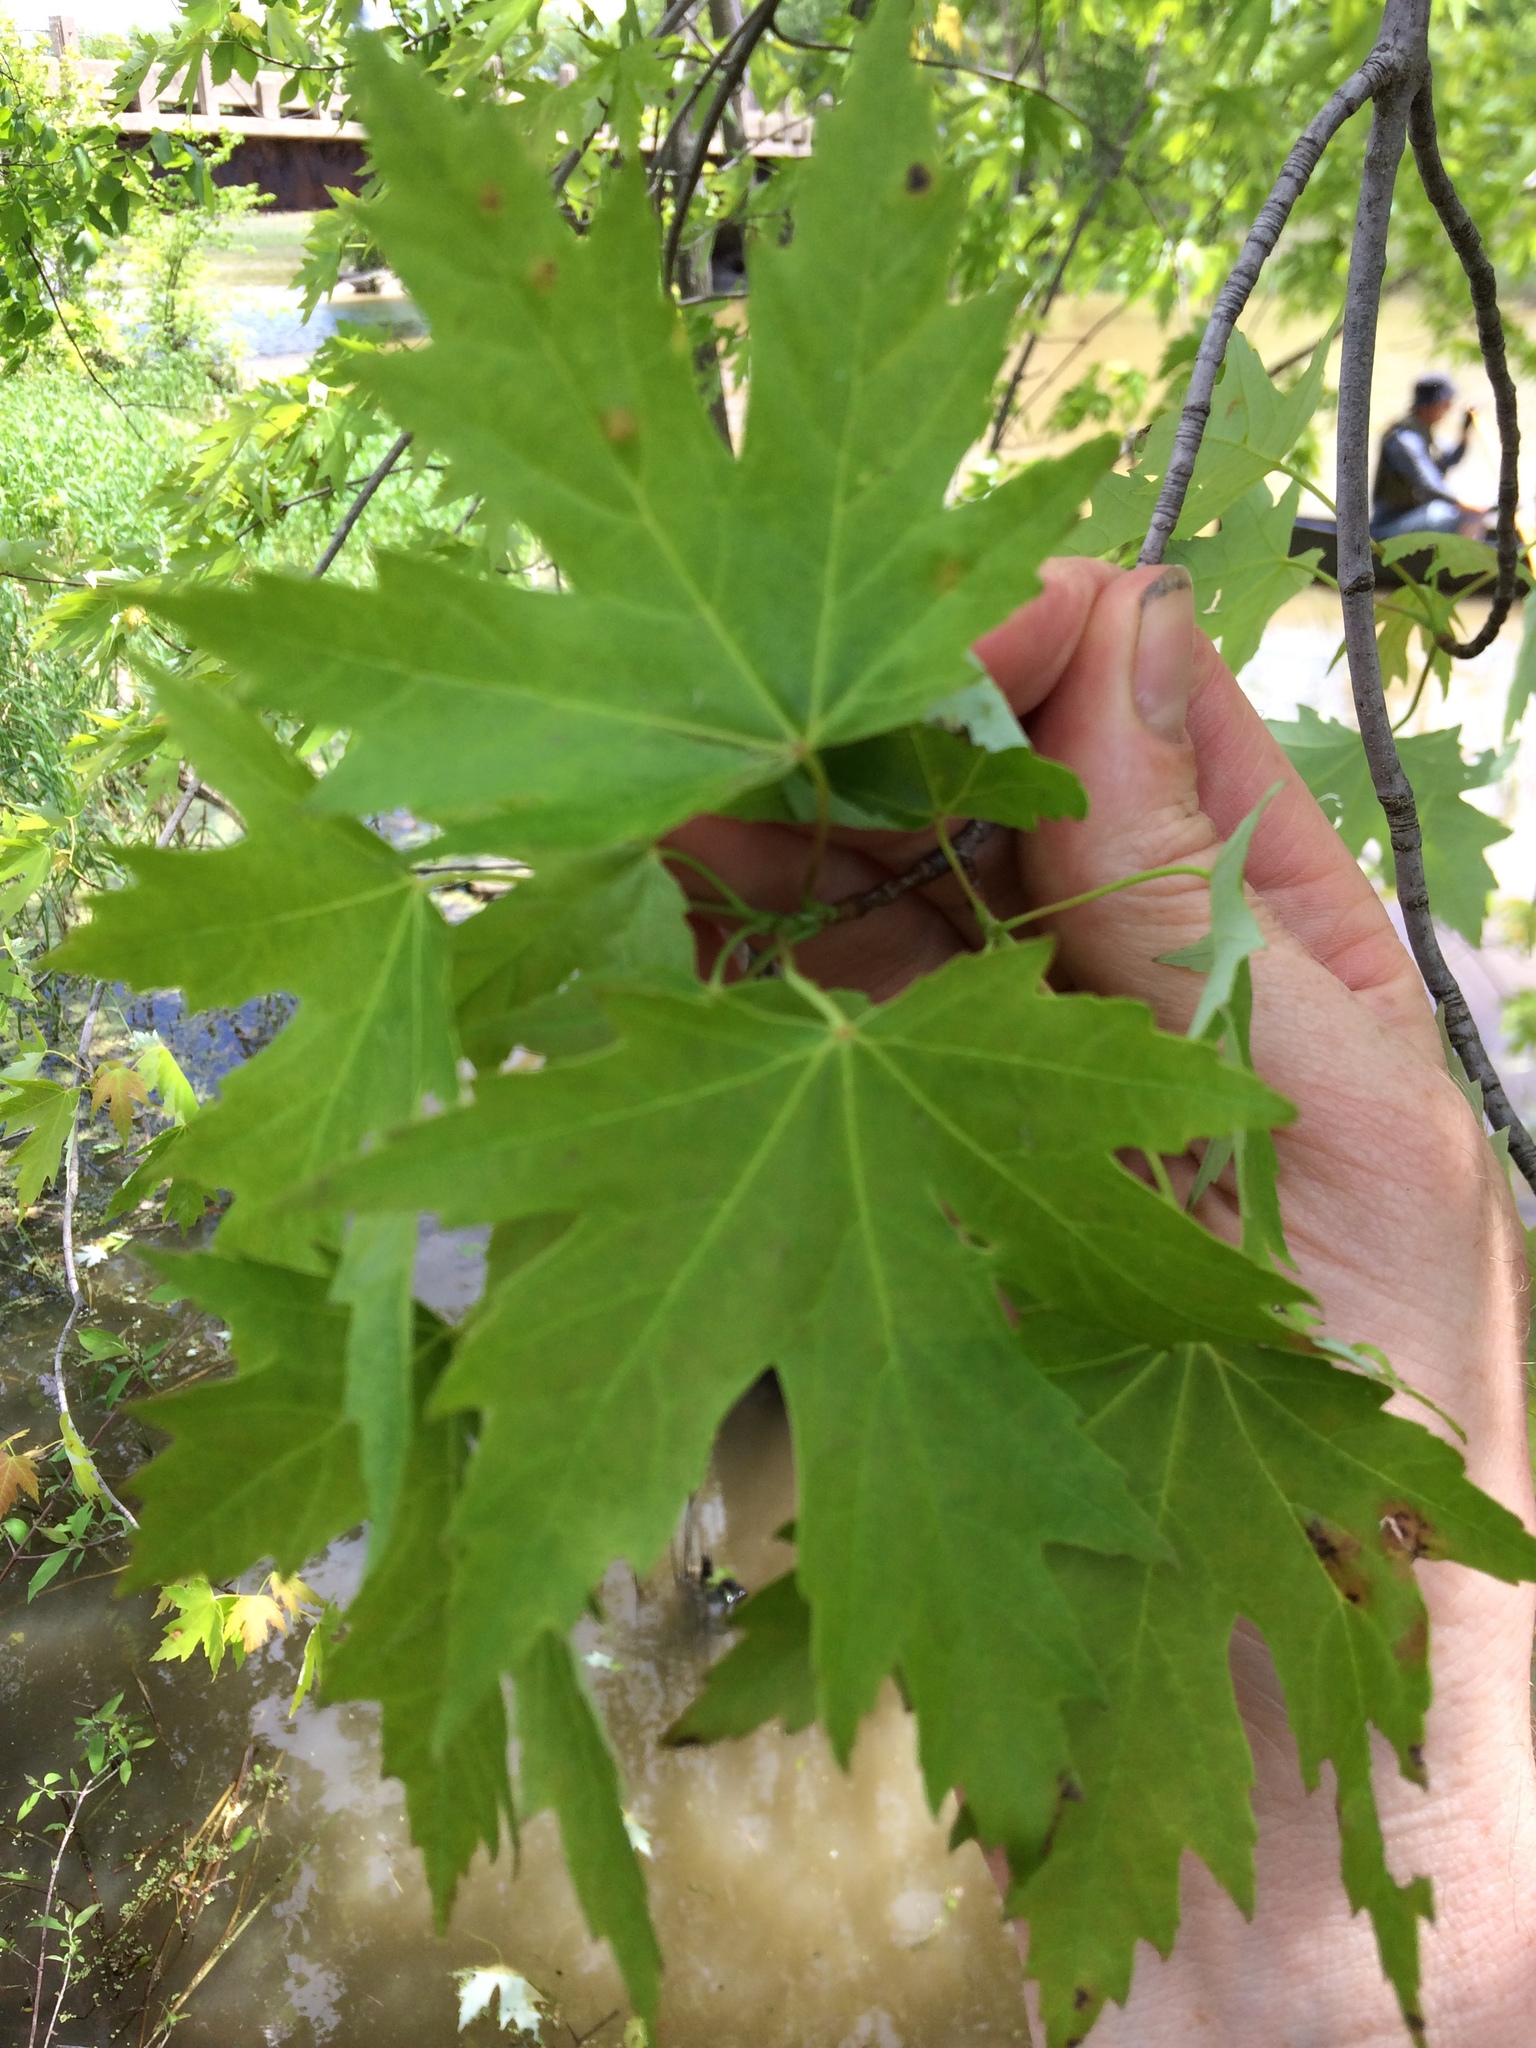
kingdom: Plantae
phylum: Tracheophyta
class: Magnoliopsida
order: Sapindales
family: Sapindaceae
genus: Acer
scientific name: Acer saccharinum
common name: Silver maple
